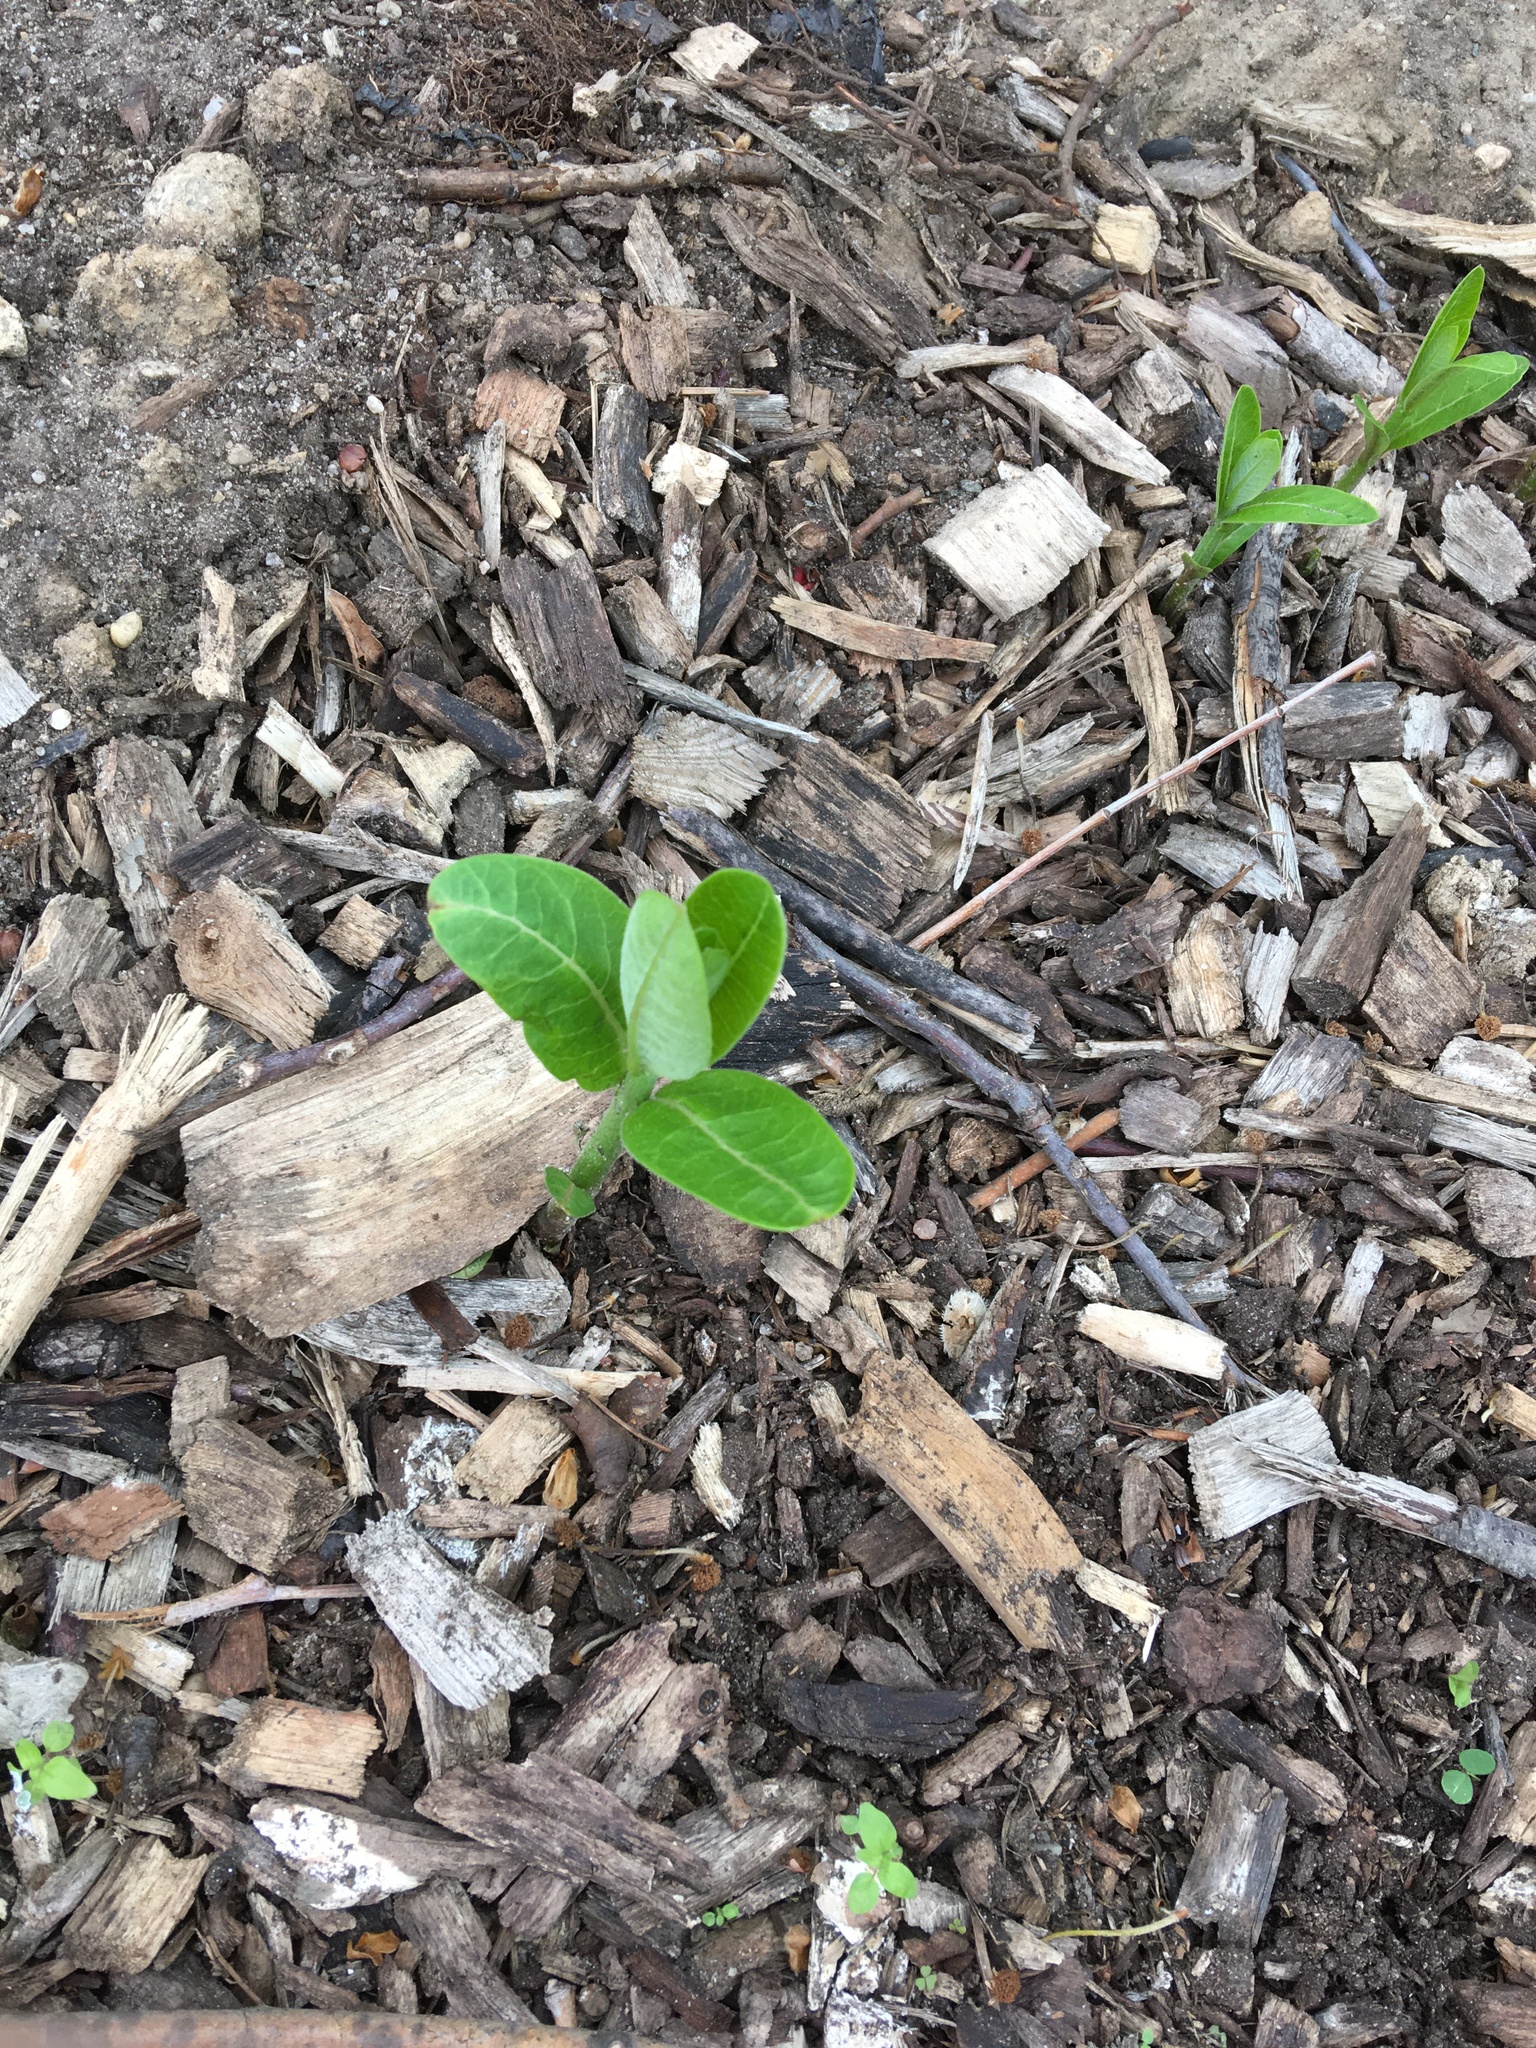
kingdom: Plantae
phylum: Tracheophyta
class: Magnoliopsida
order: Gentianales
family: Apocynaceae
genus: Asclepias
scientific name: Asclepias syriaca
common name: Common milkweed
